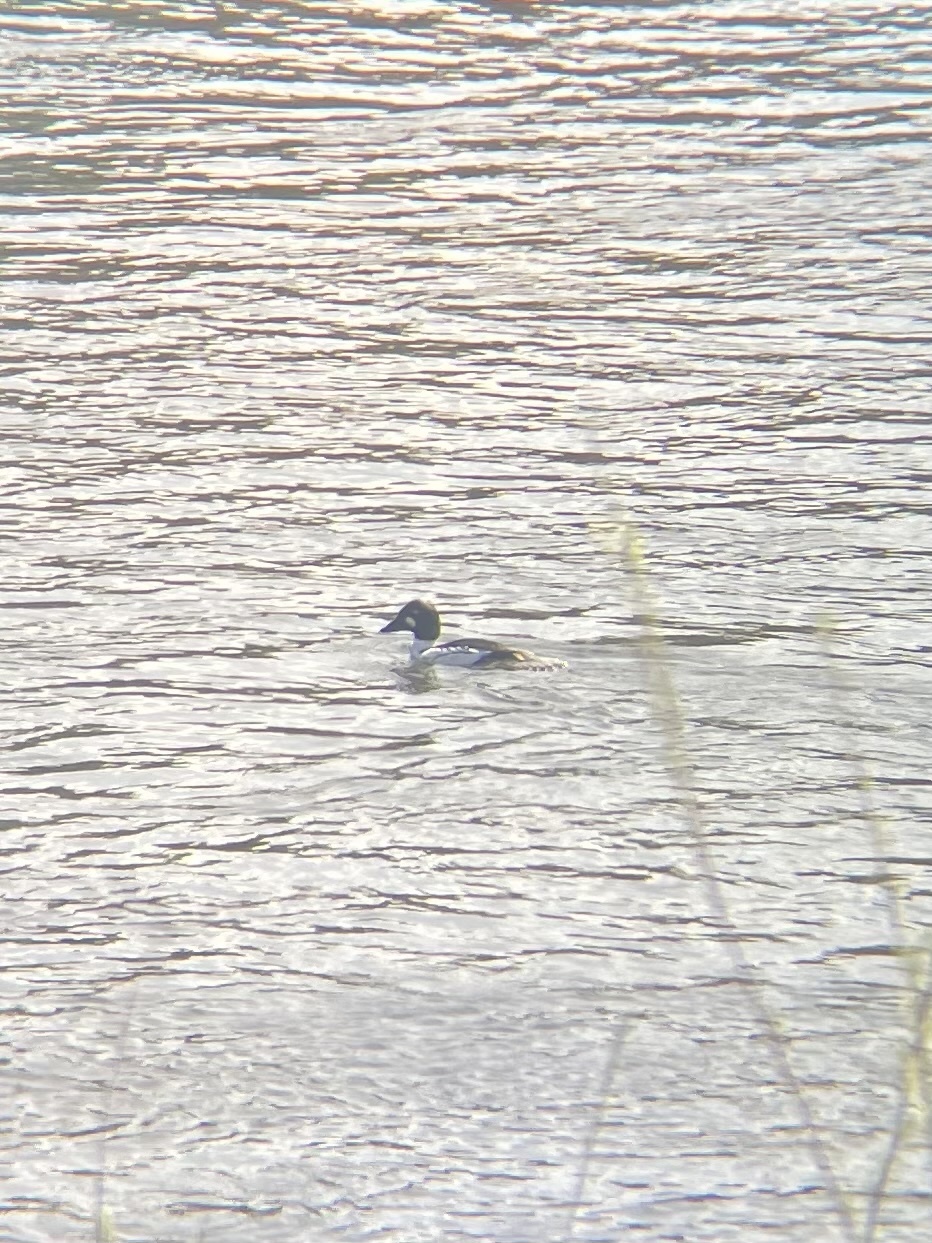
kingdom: Animalia
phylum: Chordata
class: Aves
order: Anseriformes
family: Anatidae
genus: Bucephala
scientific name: Bucephala clangula
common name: Common goldeneye
